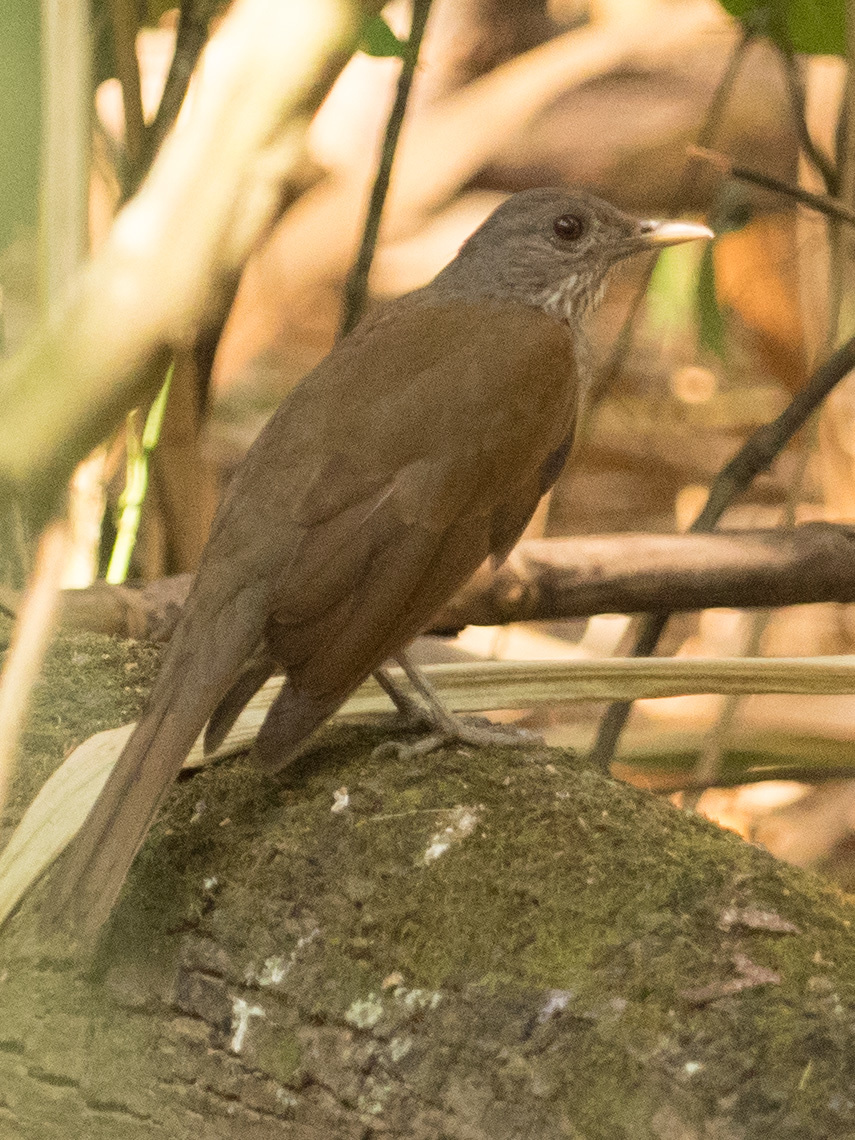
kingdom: Animalia
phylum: Chordata
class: Aves
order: Passeriformes
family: Turdidae
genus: Turdus
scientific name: Turdus leucomelas
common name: Pale-breasted thrush
